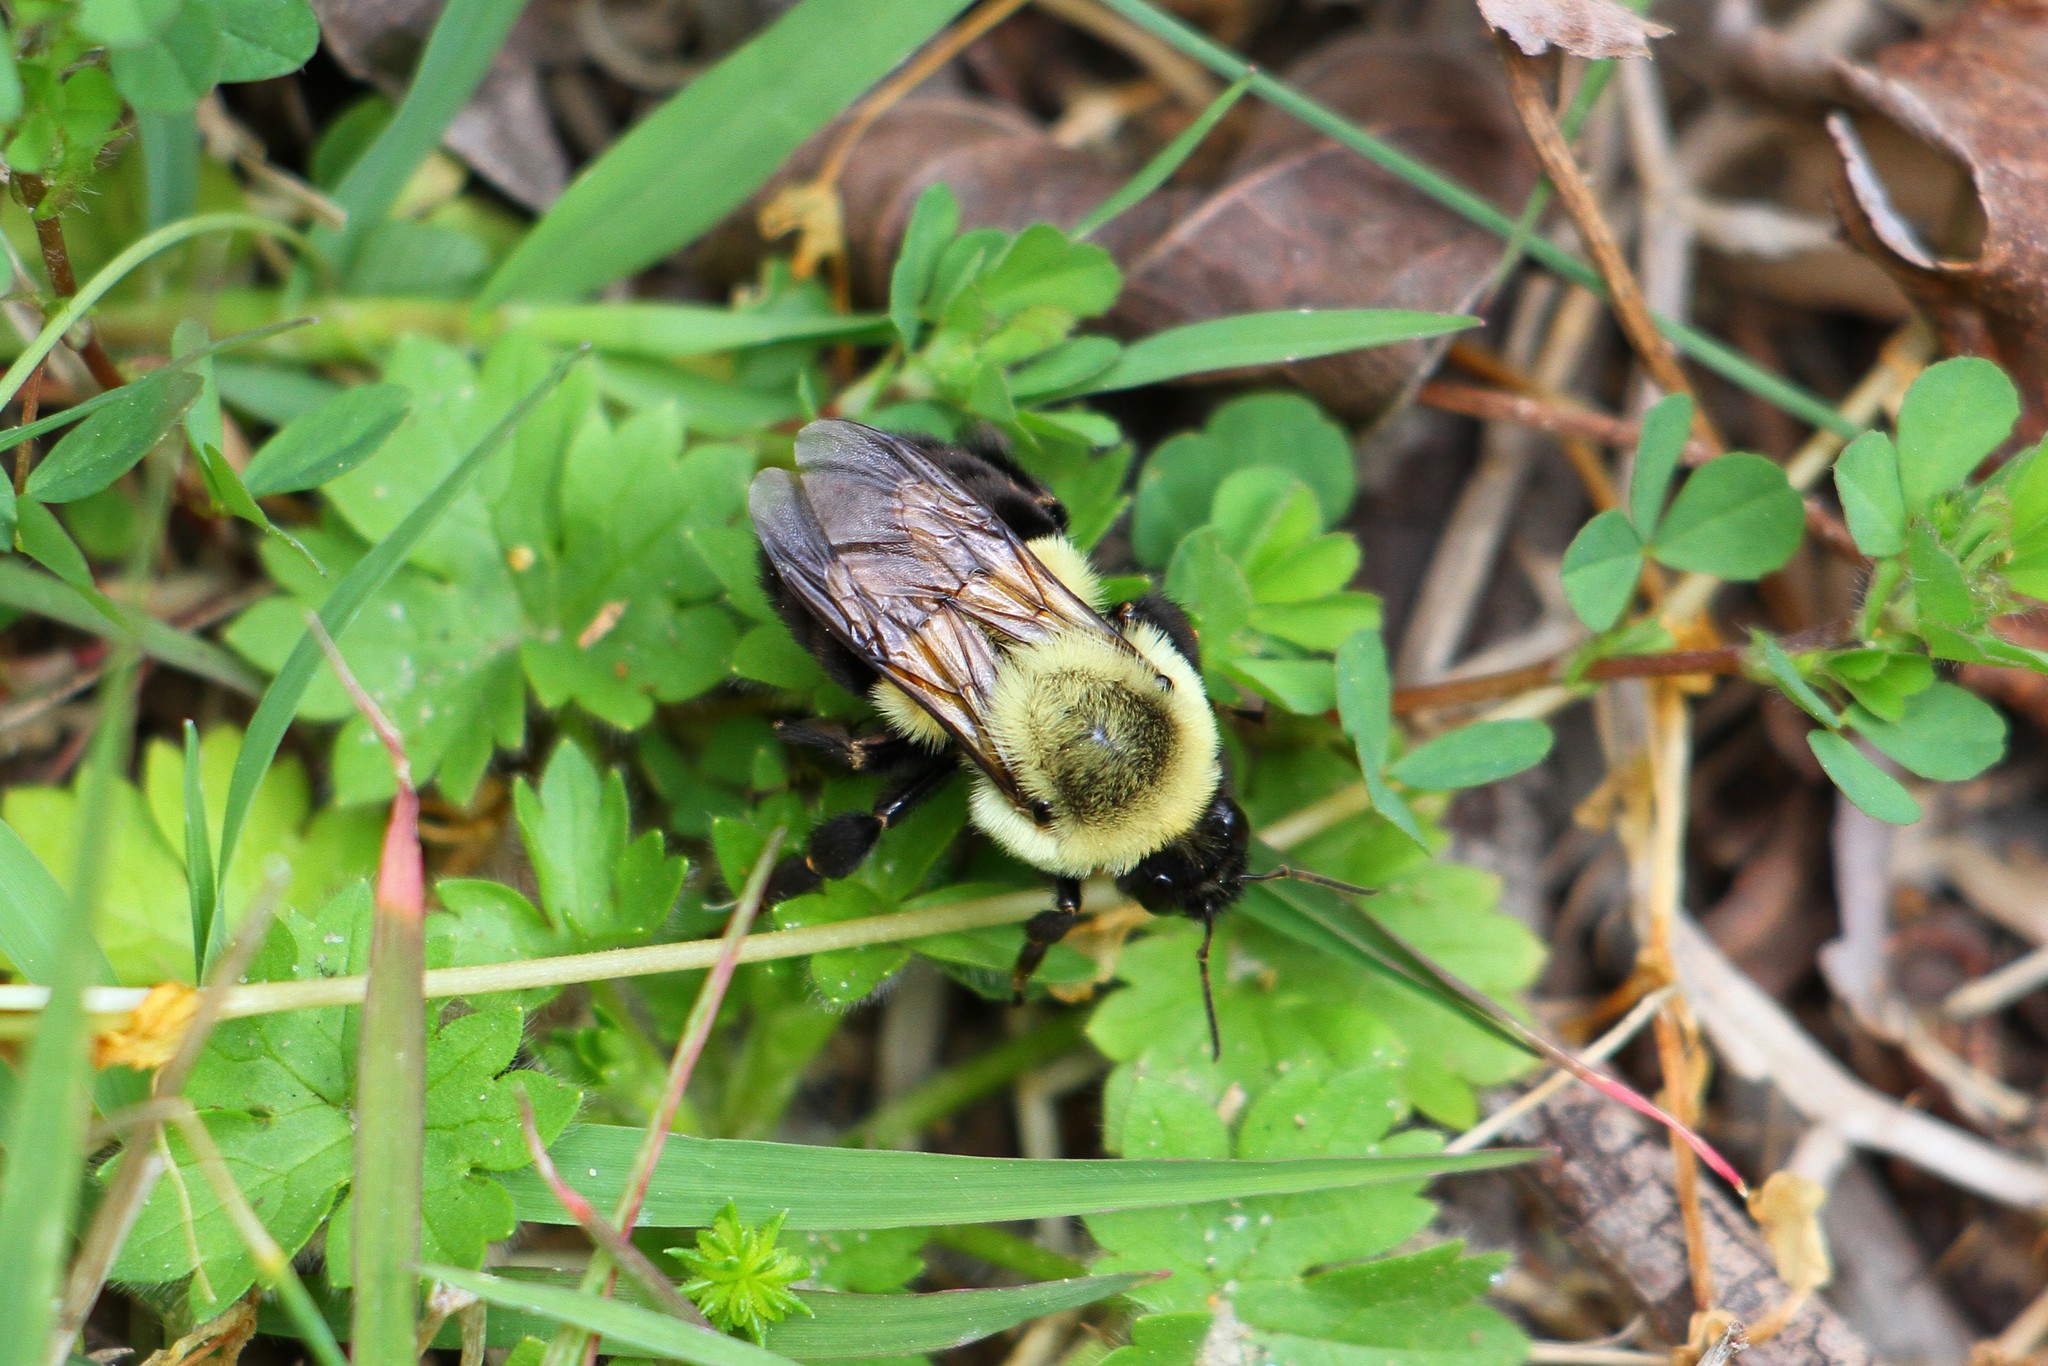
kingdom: Animalia
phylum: Arthropoda
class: Insecta
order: Hymenoptera
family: Apidae
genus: Bombus
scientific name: Bombus impatiens
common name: Common eastern bumble bee
